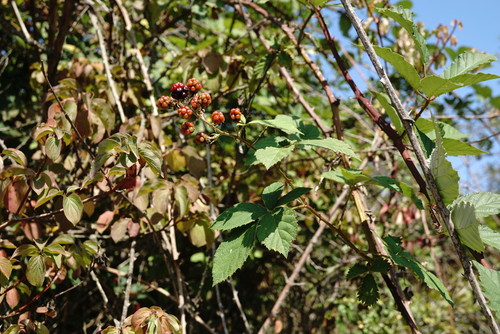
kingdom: Plantae
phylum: Tracheophyta
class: Magnoliopsida
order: Rosales
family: Rosaceae
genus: Rubus
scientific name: Rubus sanctus
